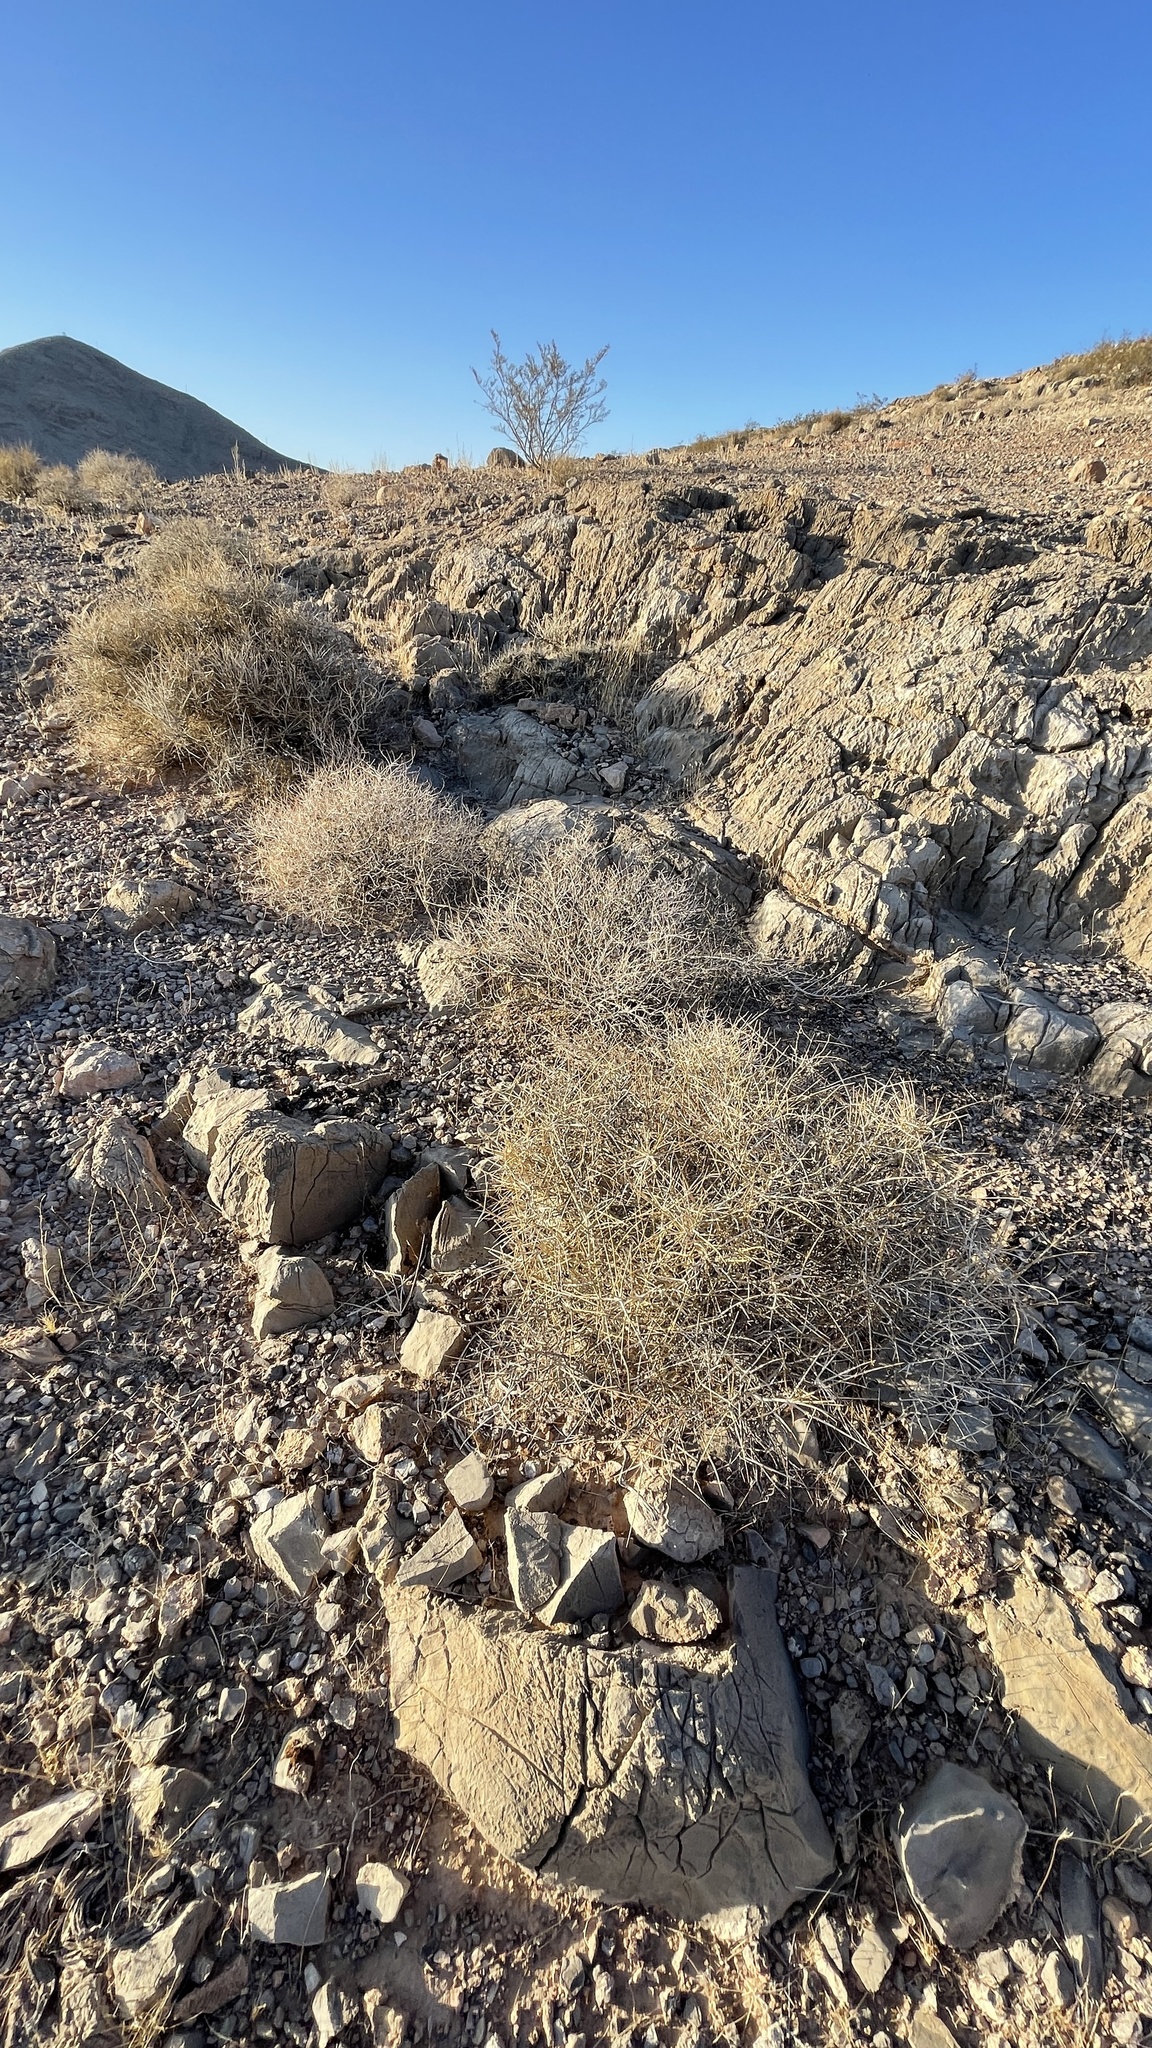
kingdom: Plantae
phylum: Tracheophyta
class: Gnetopsida
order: Ephedrales
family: Ephedraceae
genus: Ephedra
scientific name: Ephedra nevadensis
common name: Gray ephedra
